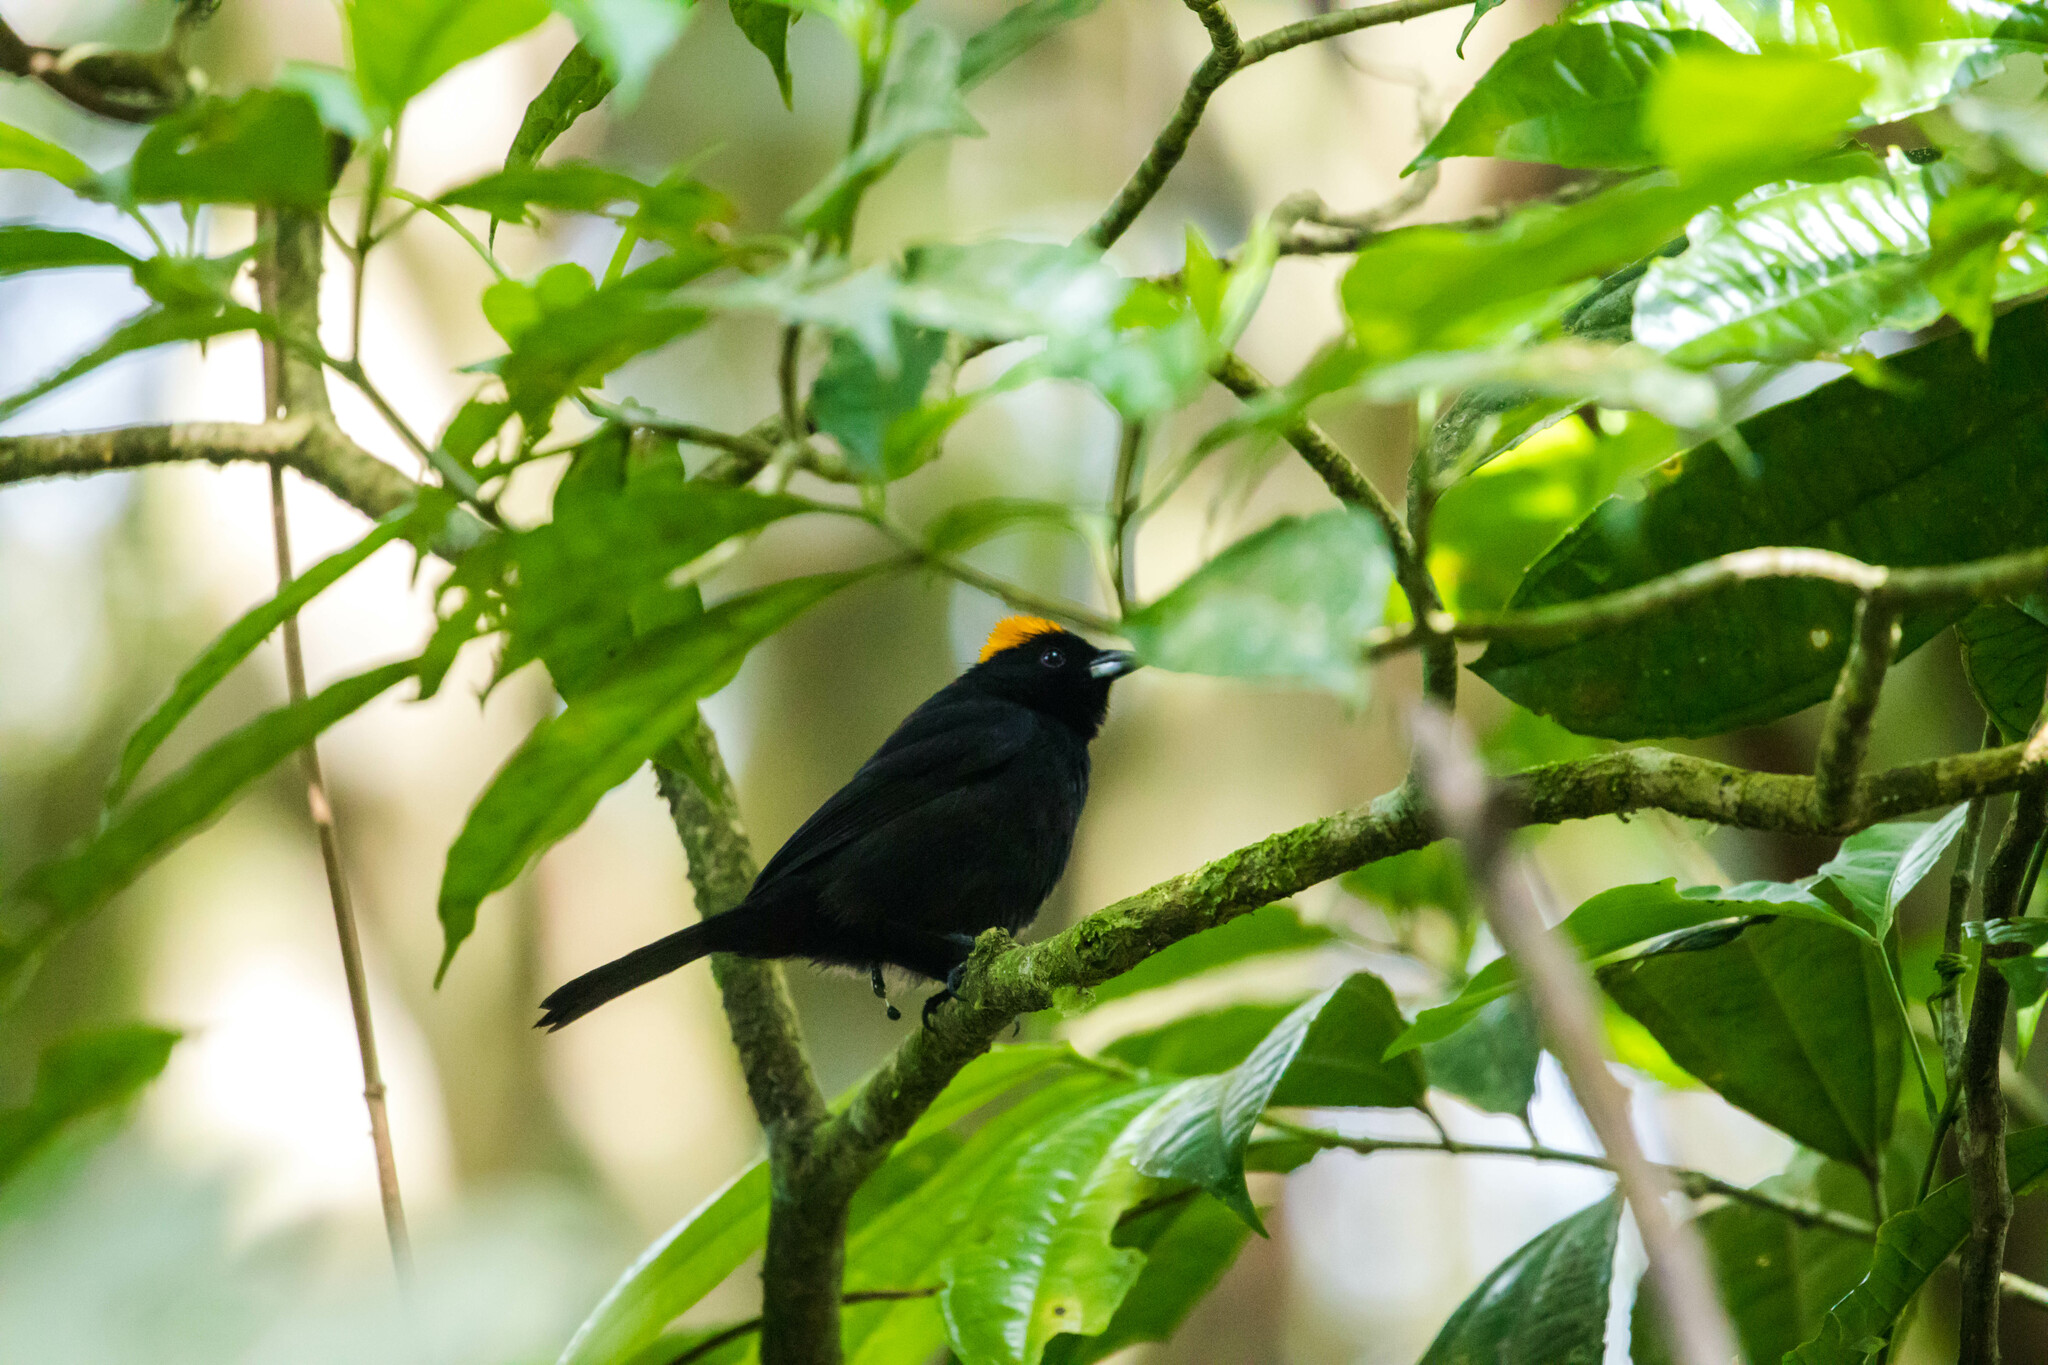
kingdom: Animalia
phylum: Chordata
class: Aves
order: Passeriformes
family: Thraupidae
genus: Tachyphonus
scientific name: Tachyphonus delatrii
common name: Tawny-crested tanager
